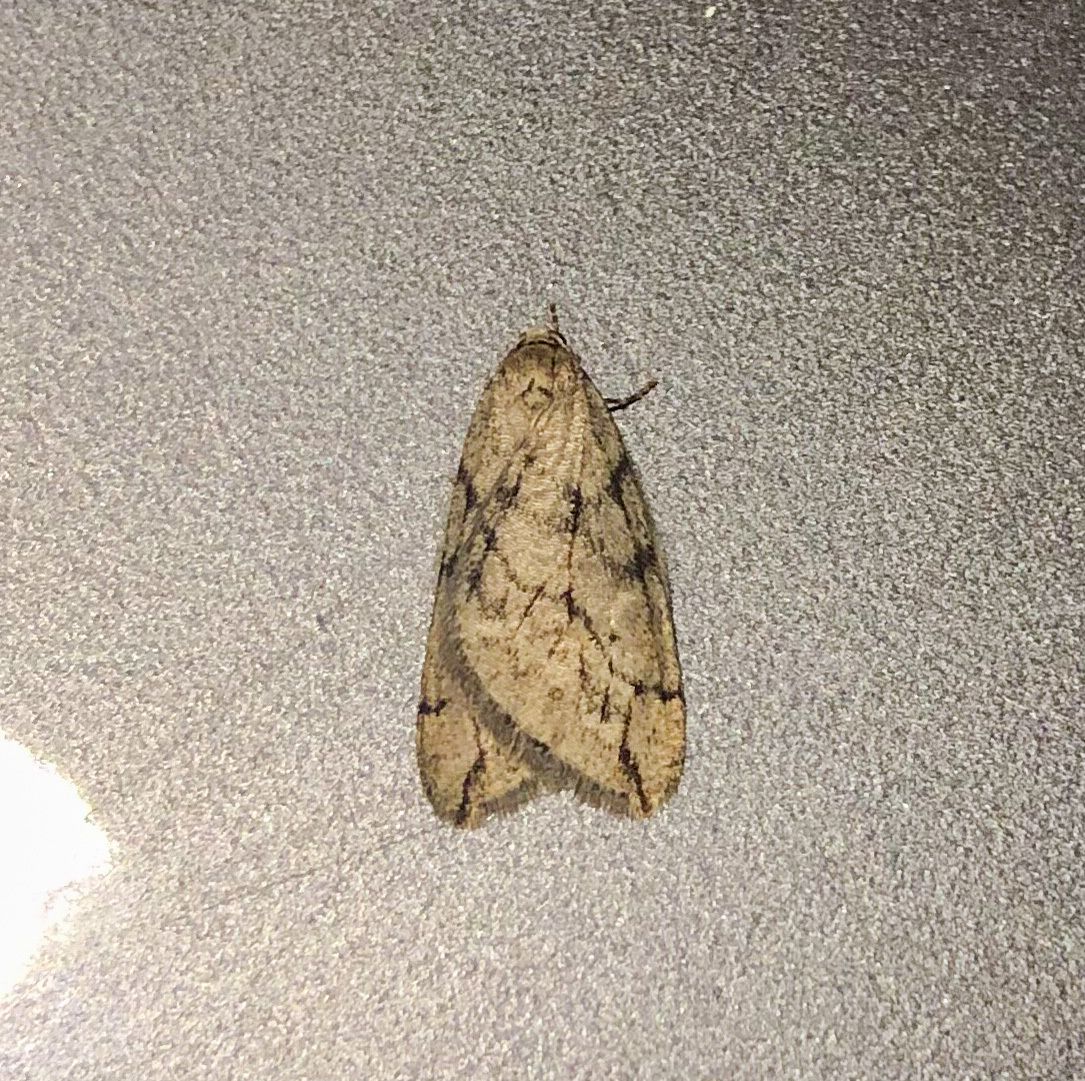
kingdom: Animalia
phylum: Arthropoda
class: Insecta
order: Lepidoptera
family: Geometridae
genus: Paleacrita
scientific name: Paleacrita vernata
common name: Spring cankerworm
